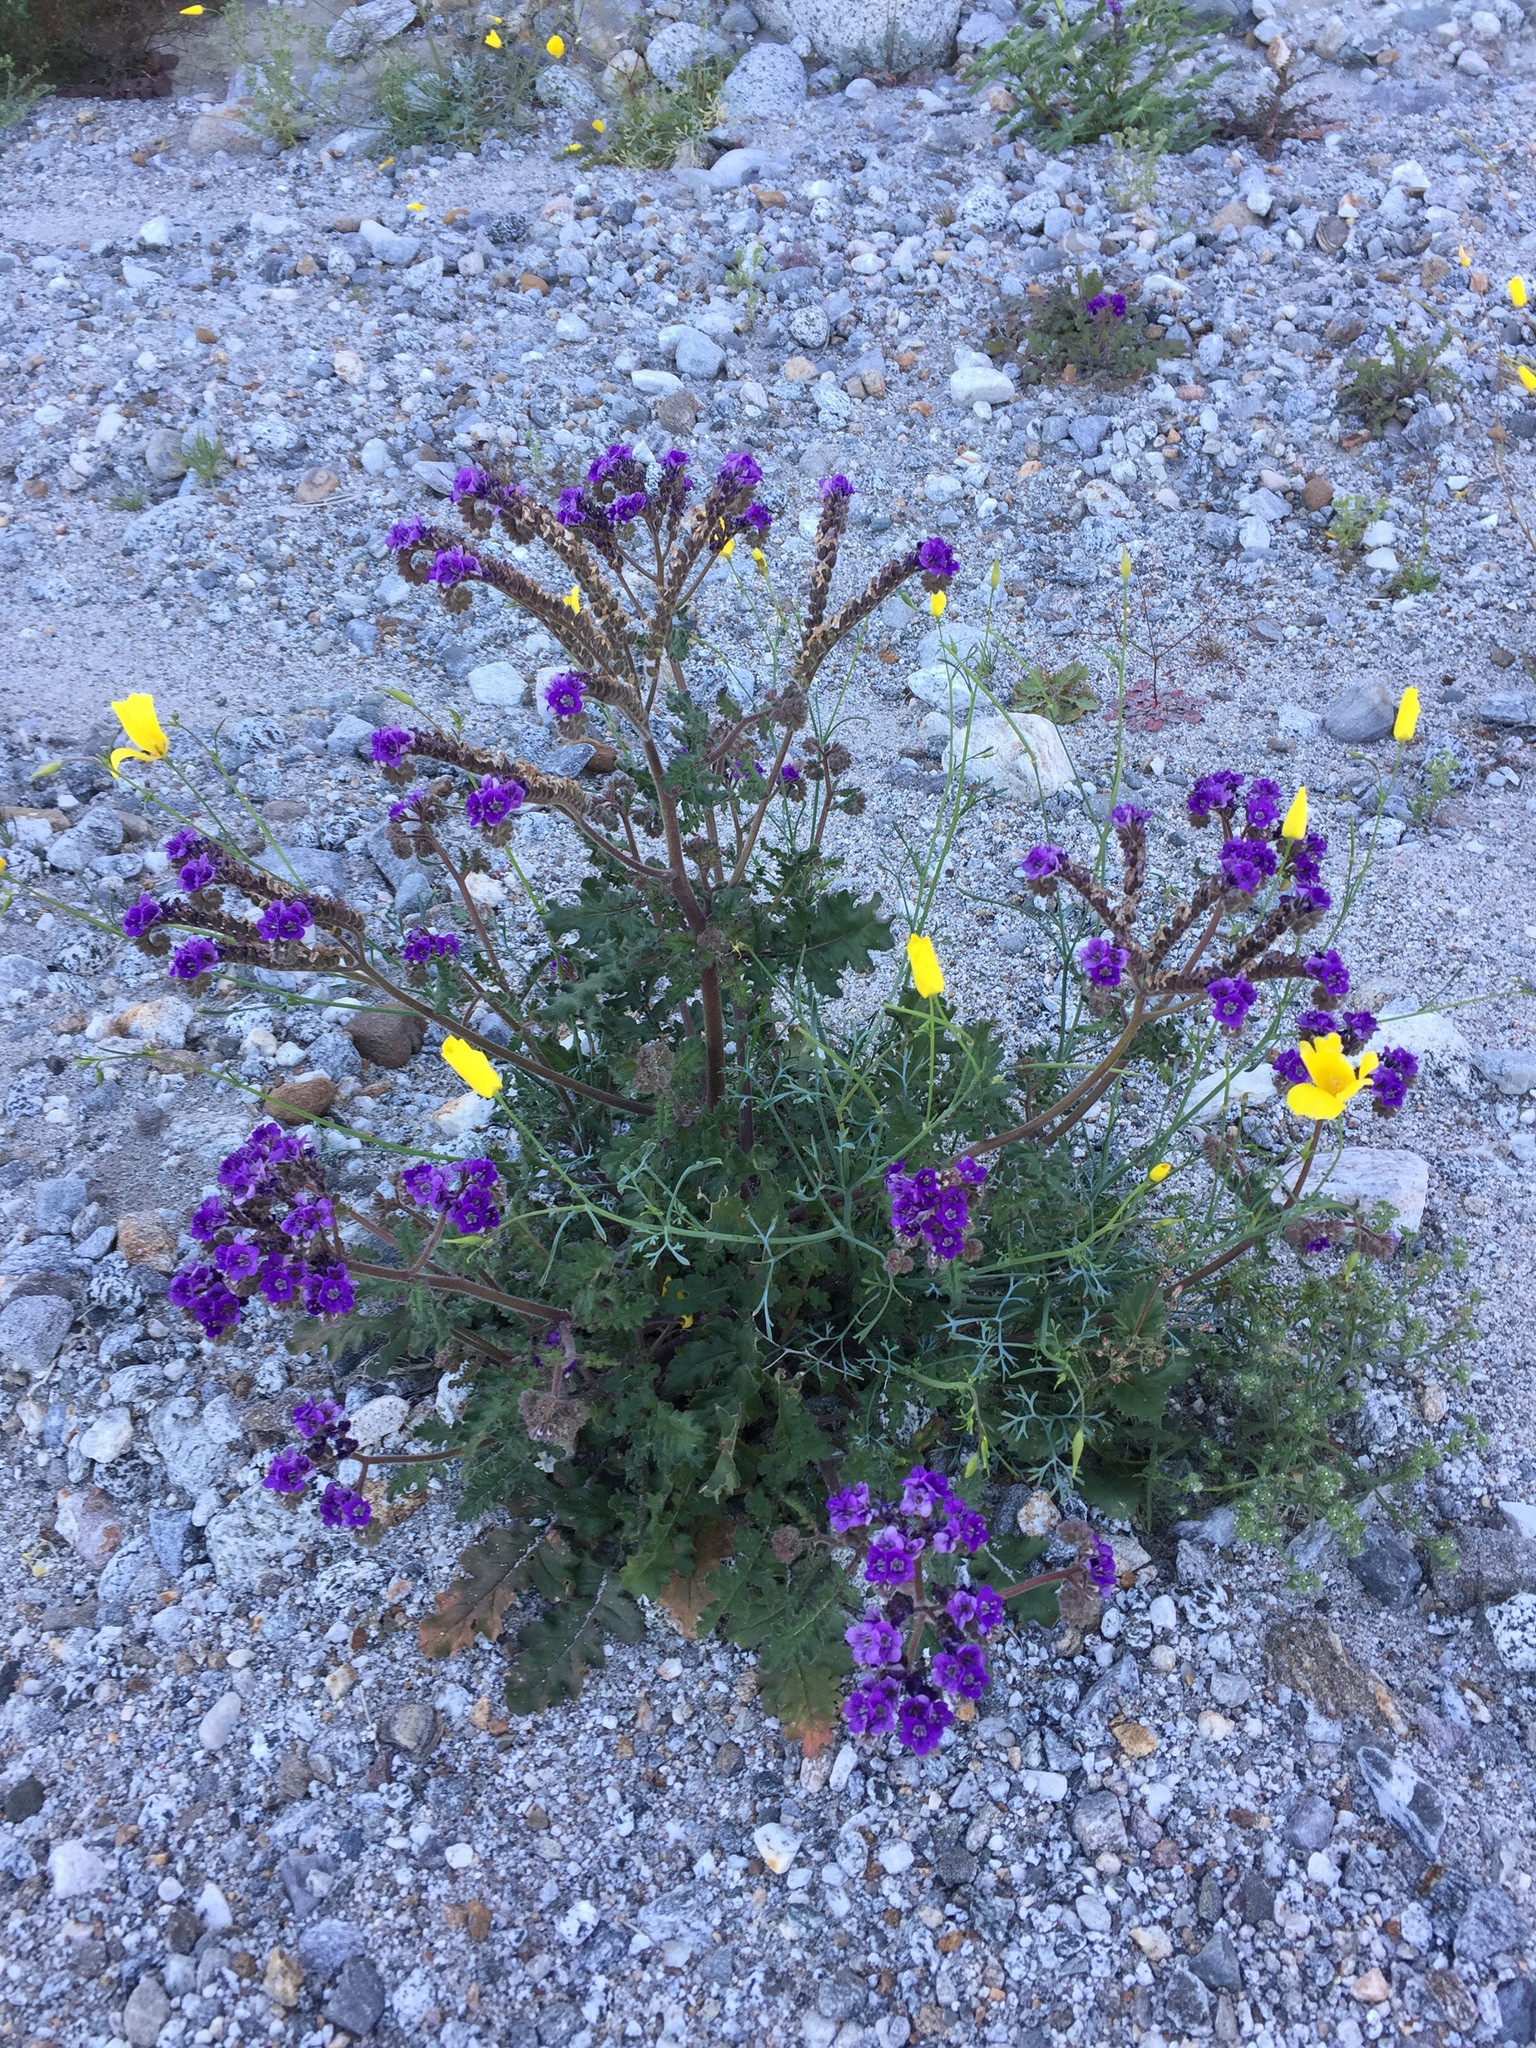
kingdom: Plantae
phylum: Tracheophyta
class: Magnoliopsida
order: Boraginales
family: Hydrophyllaceae
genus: Phacelia
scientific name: Phacelia crenulata
